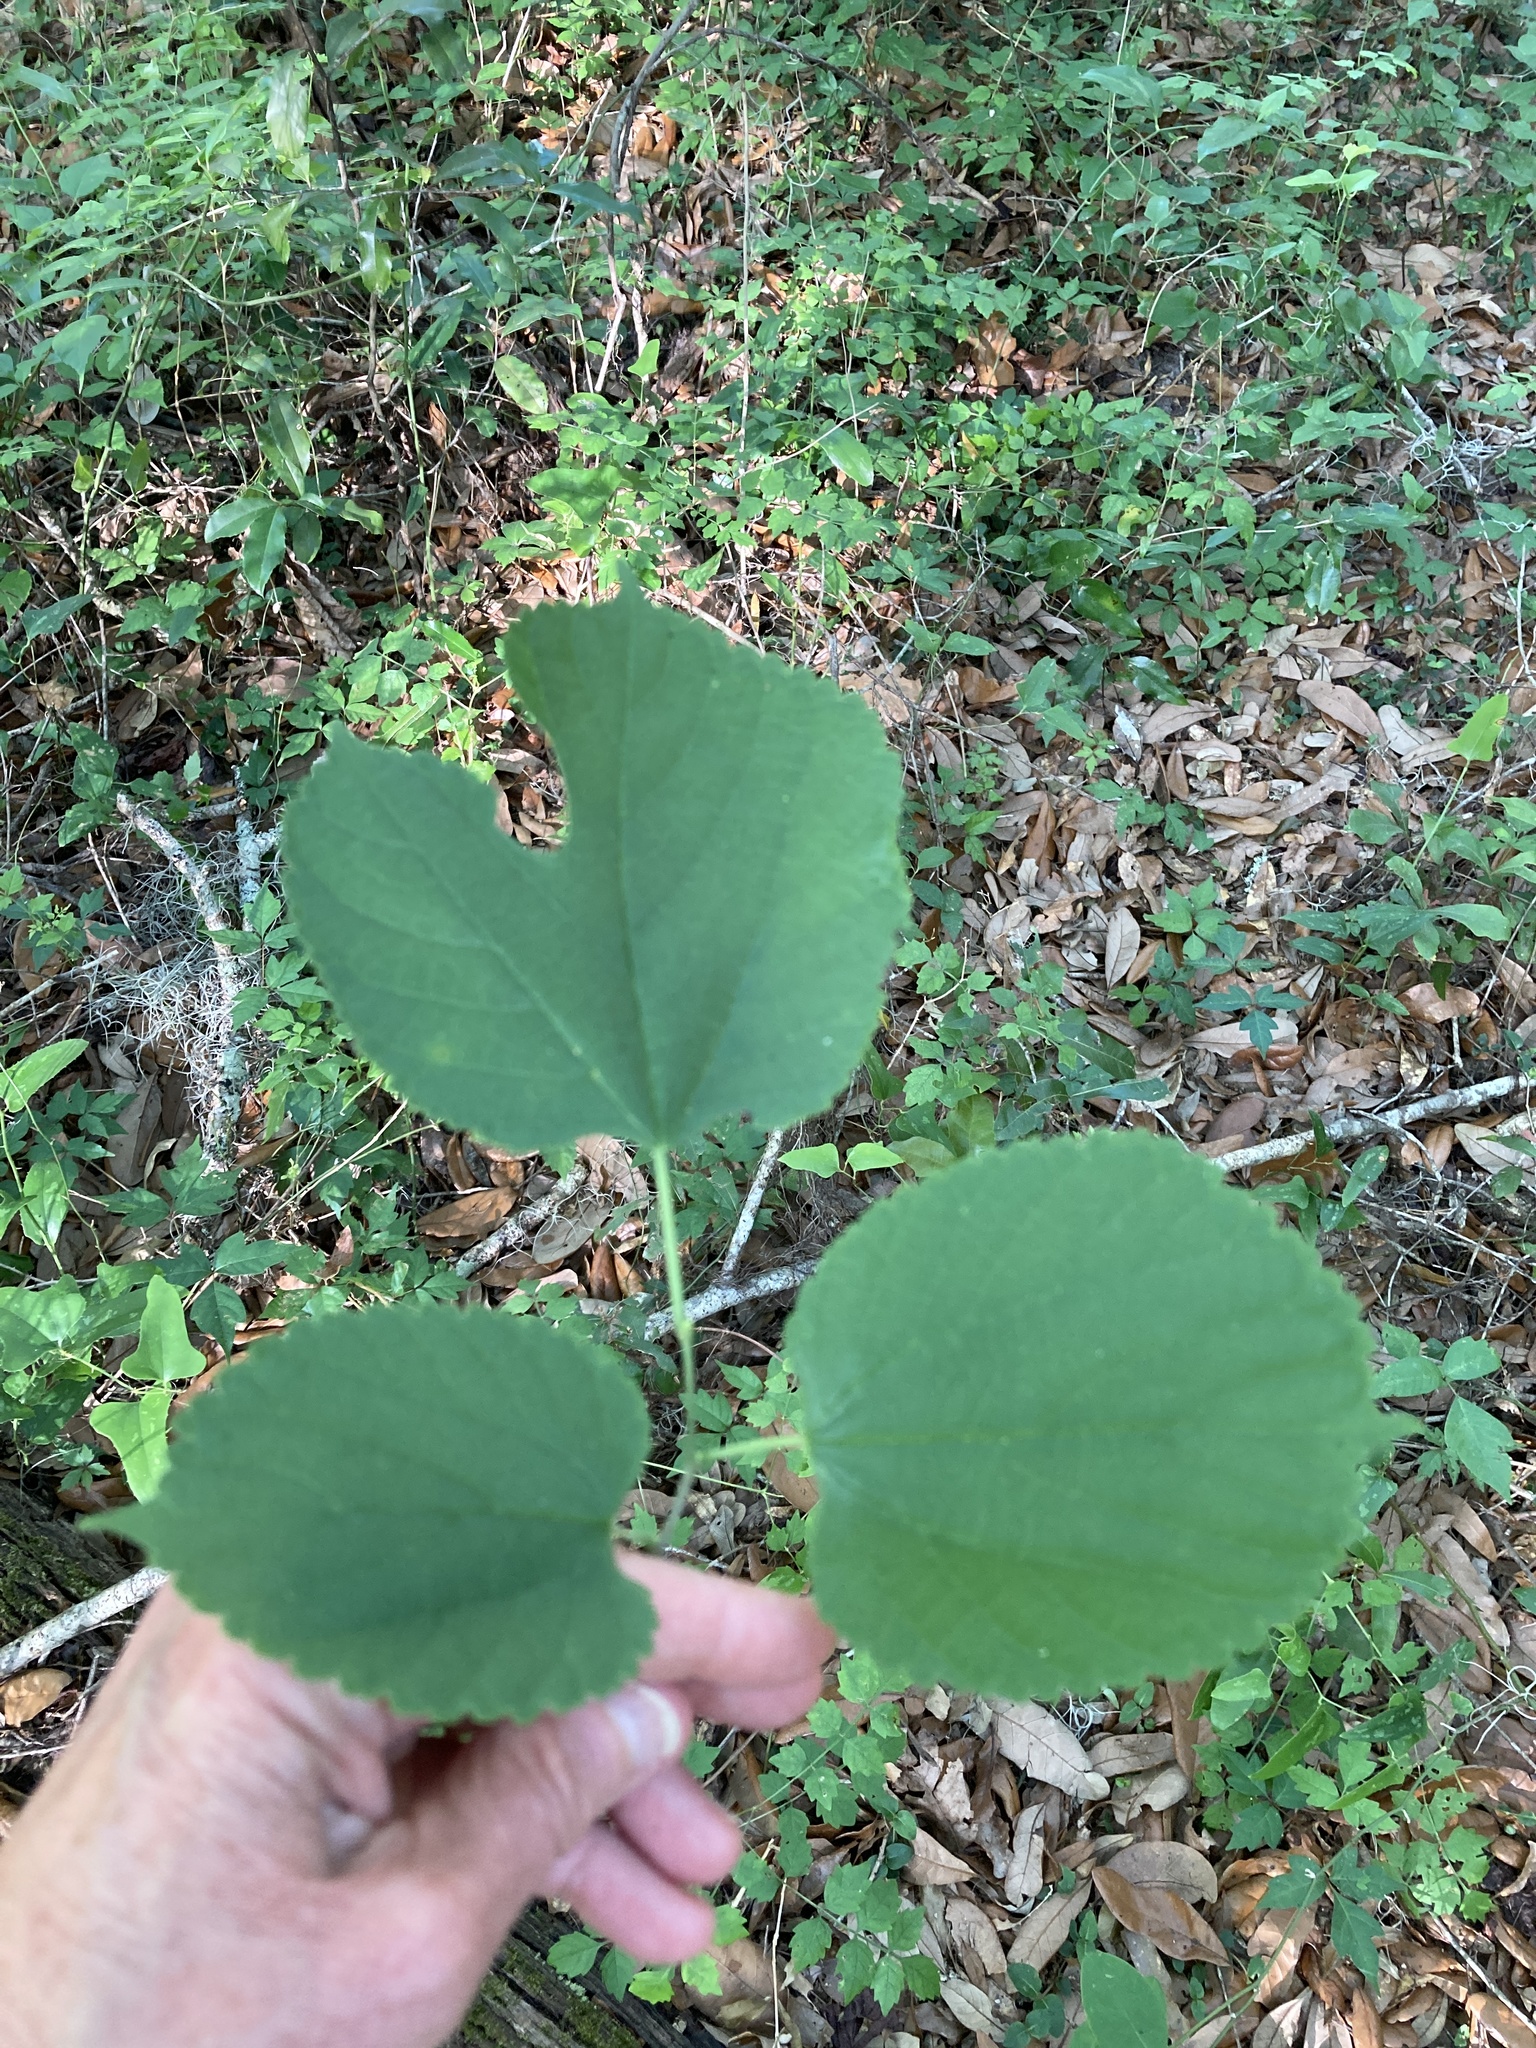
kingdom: Plantae
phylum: Tracheophyta
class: Magnoliopsida
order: Rosales
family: Moraceae
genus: Morus
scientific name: Morus rubra
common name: Red mulberry
